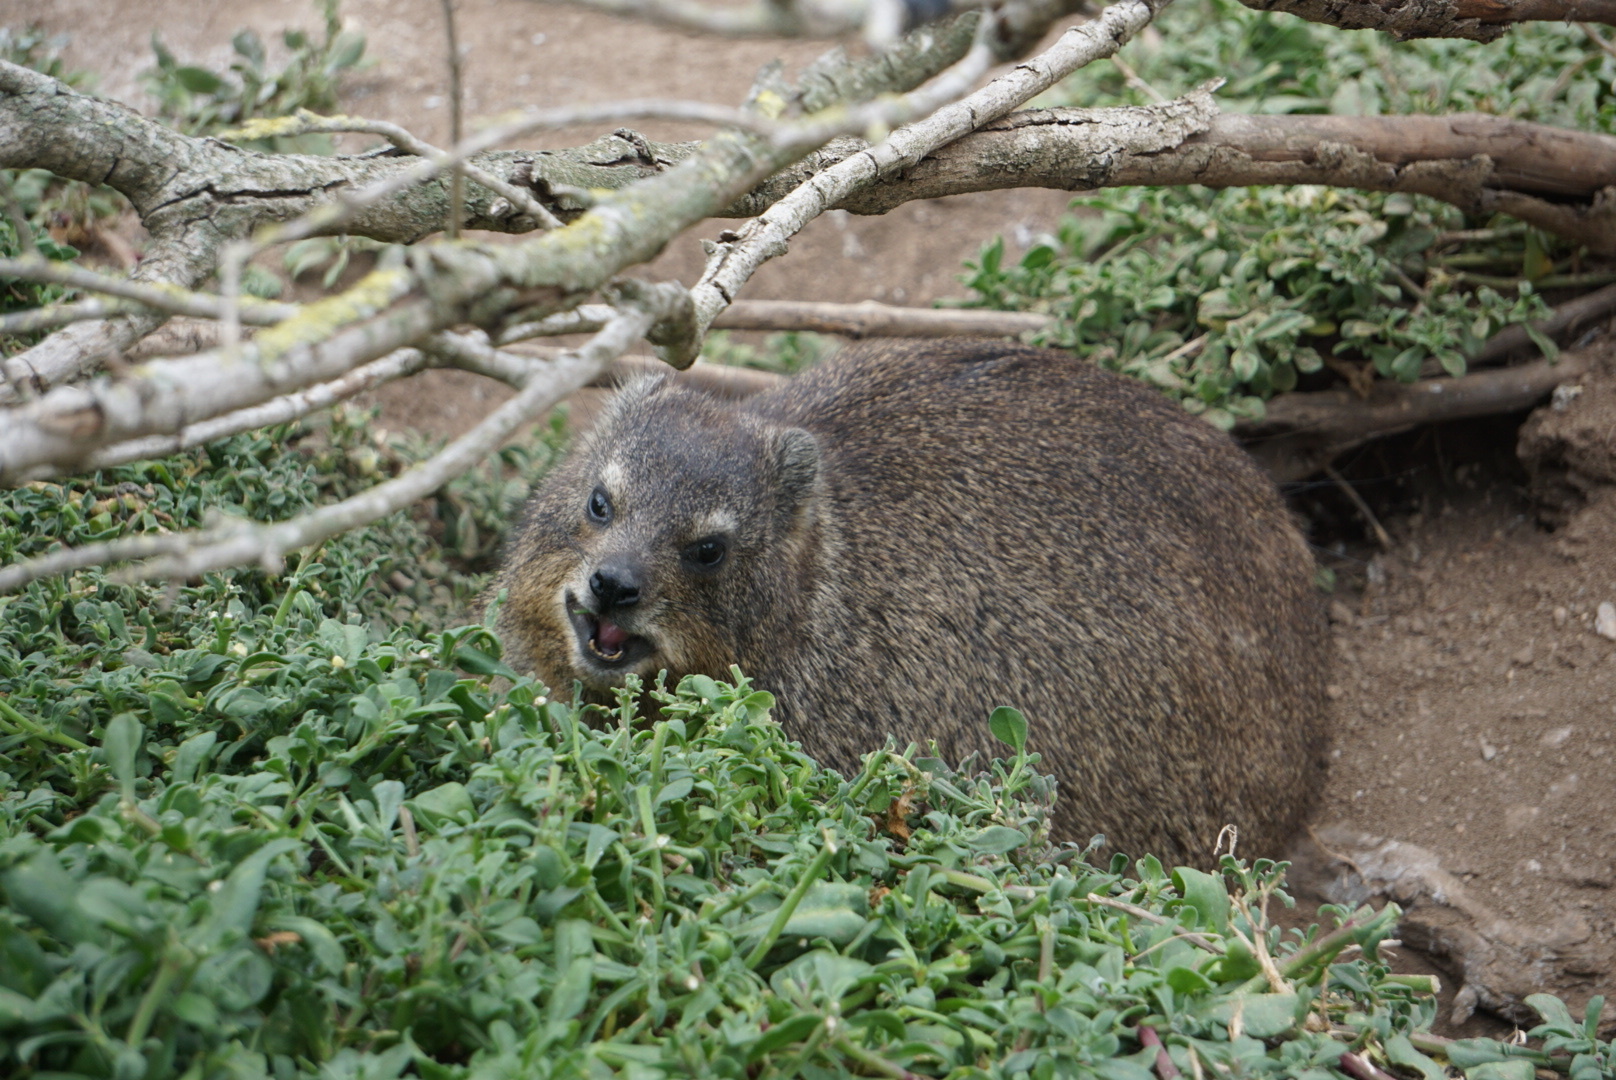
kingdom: Animalia
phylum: Chordata
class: Mammalia
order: Hyracoidea
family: Procaviidae
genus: Procavia
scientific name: Procavia capensis
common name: Rock hyrax
